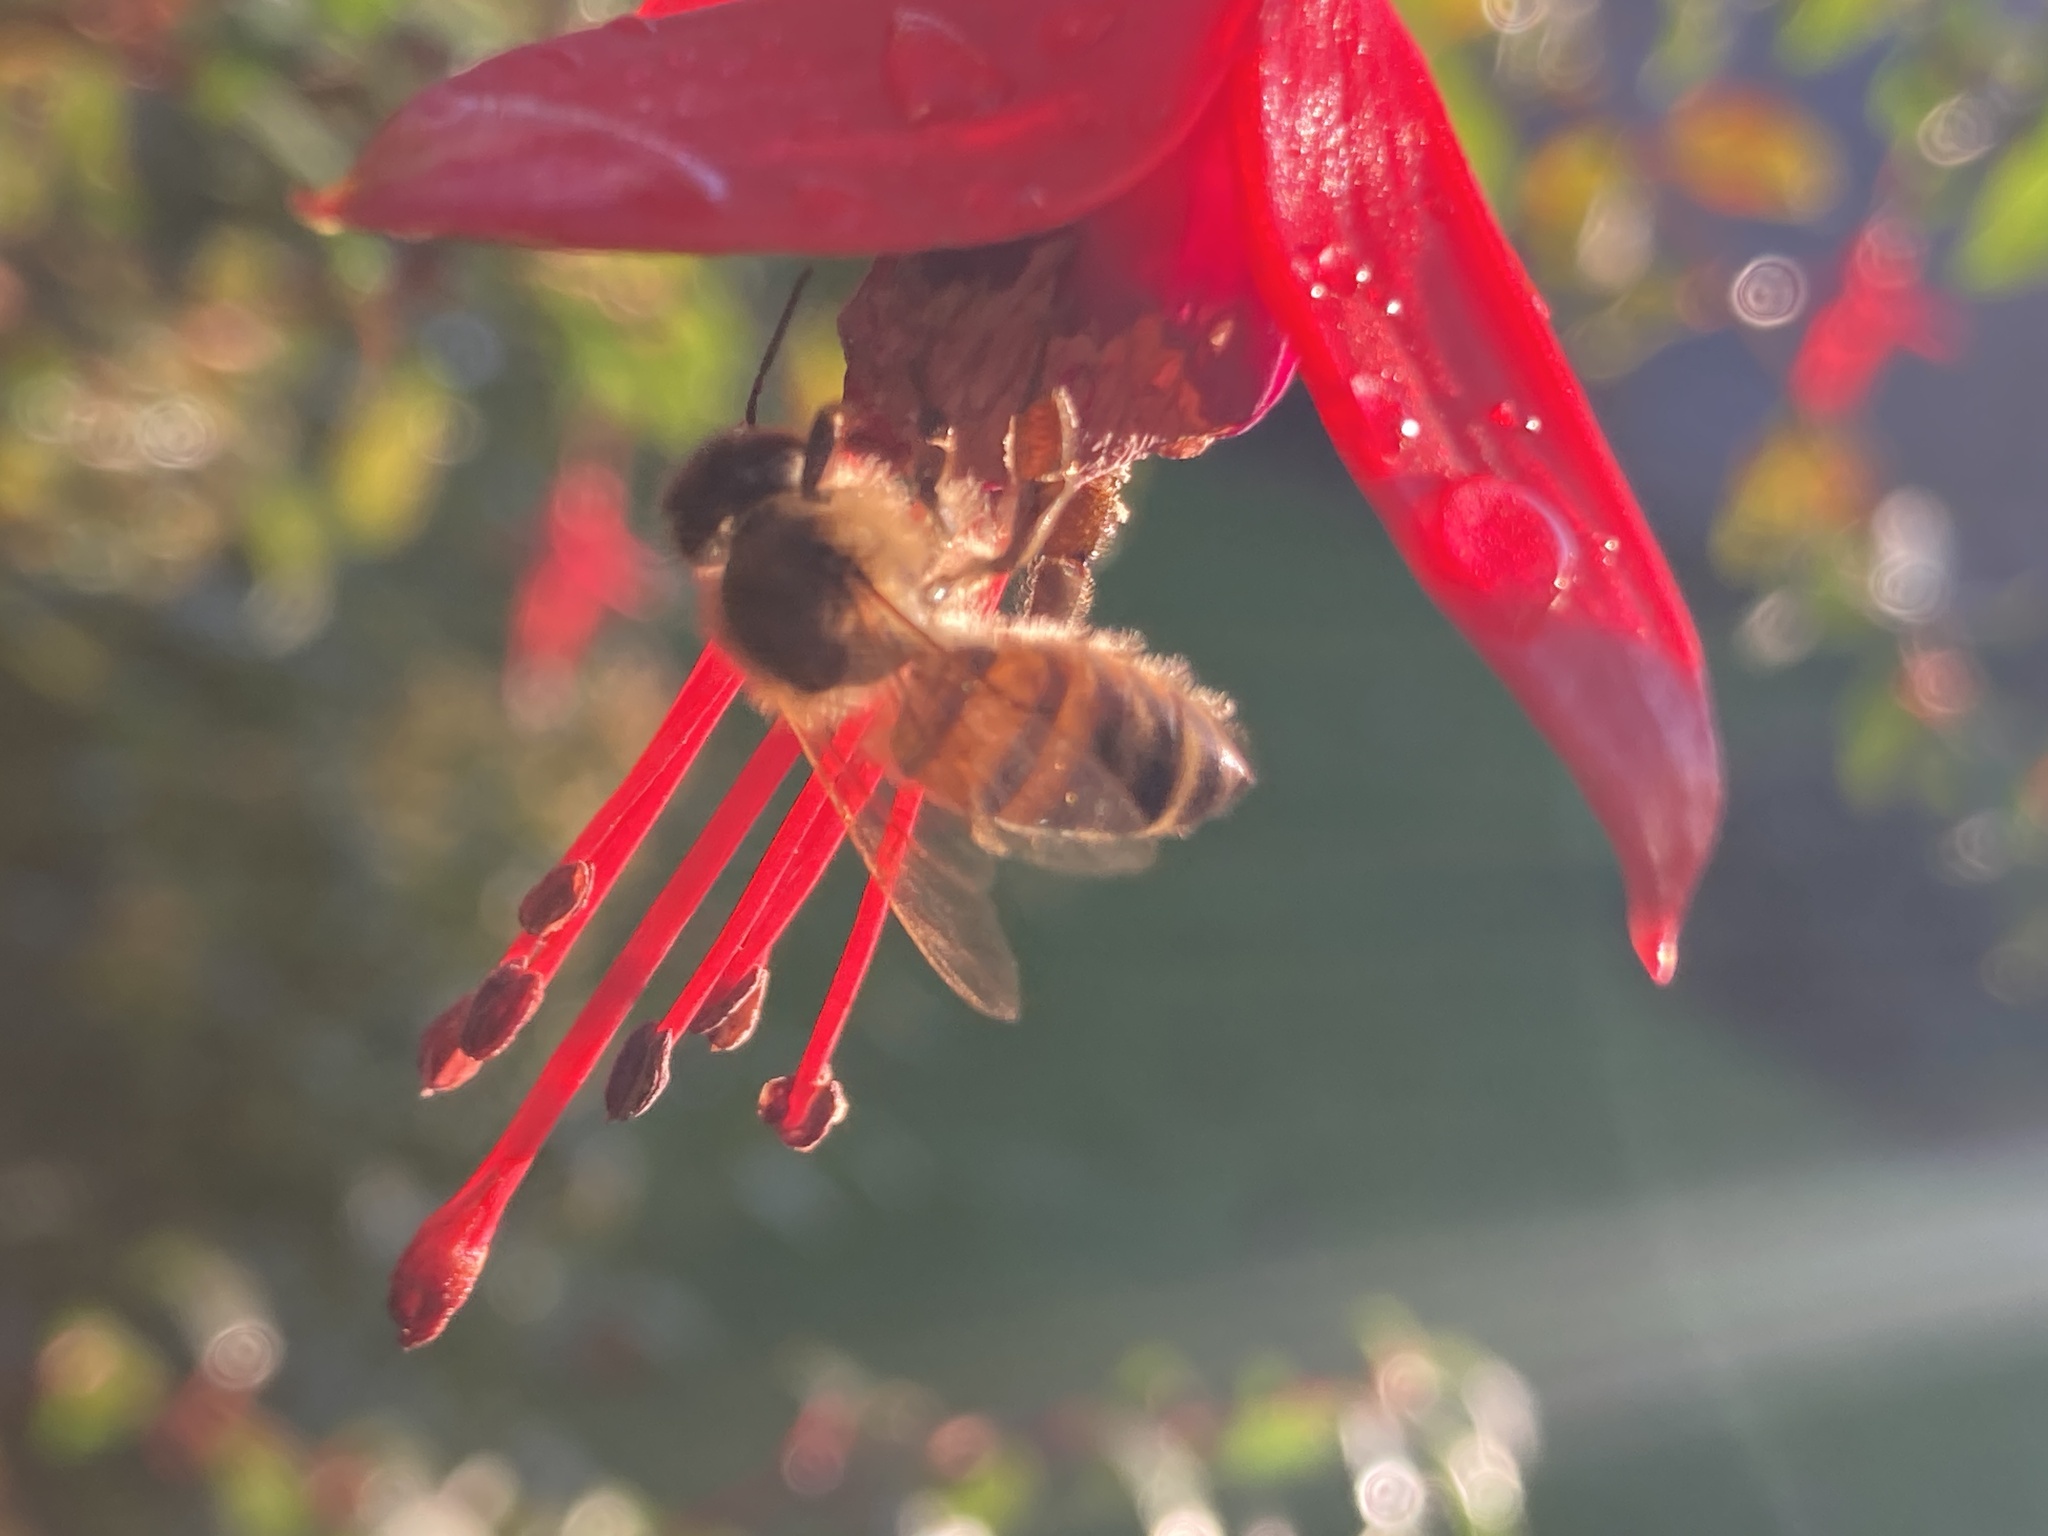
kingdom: Animalia
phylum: Arthropoda
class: Insecta
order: Hymenoptera
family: Apidae
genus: Apis
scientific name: Apis mellifera
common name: Honey bee
